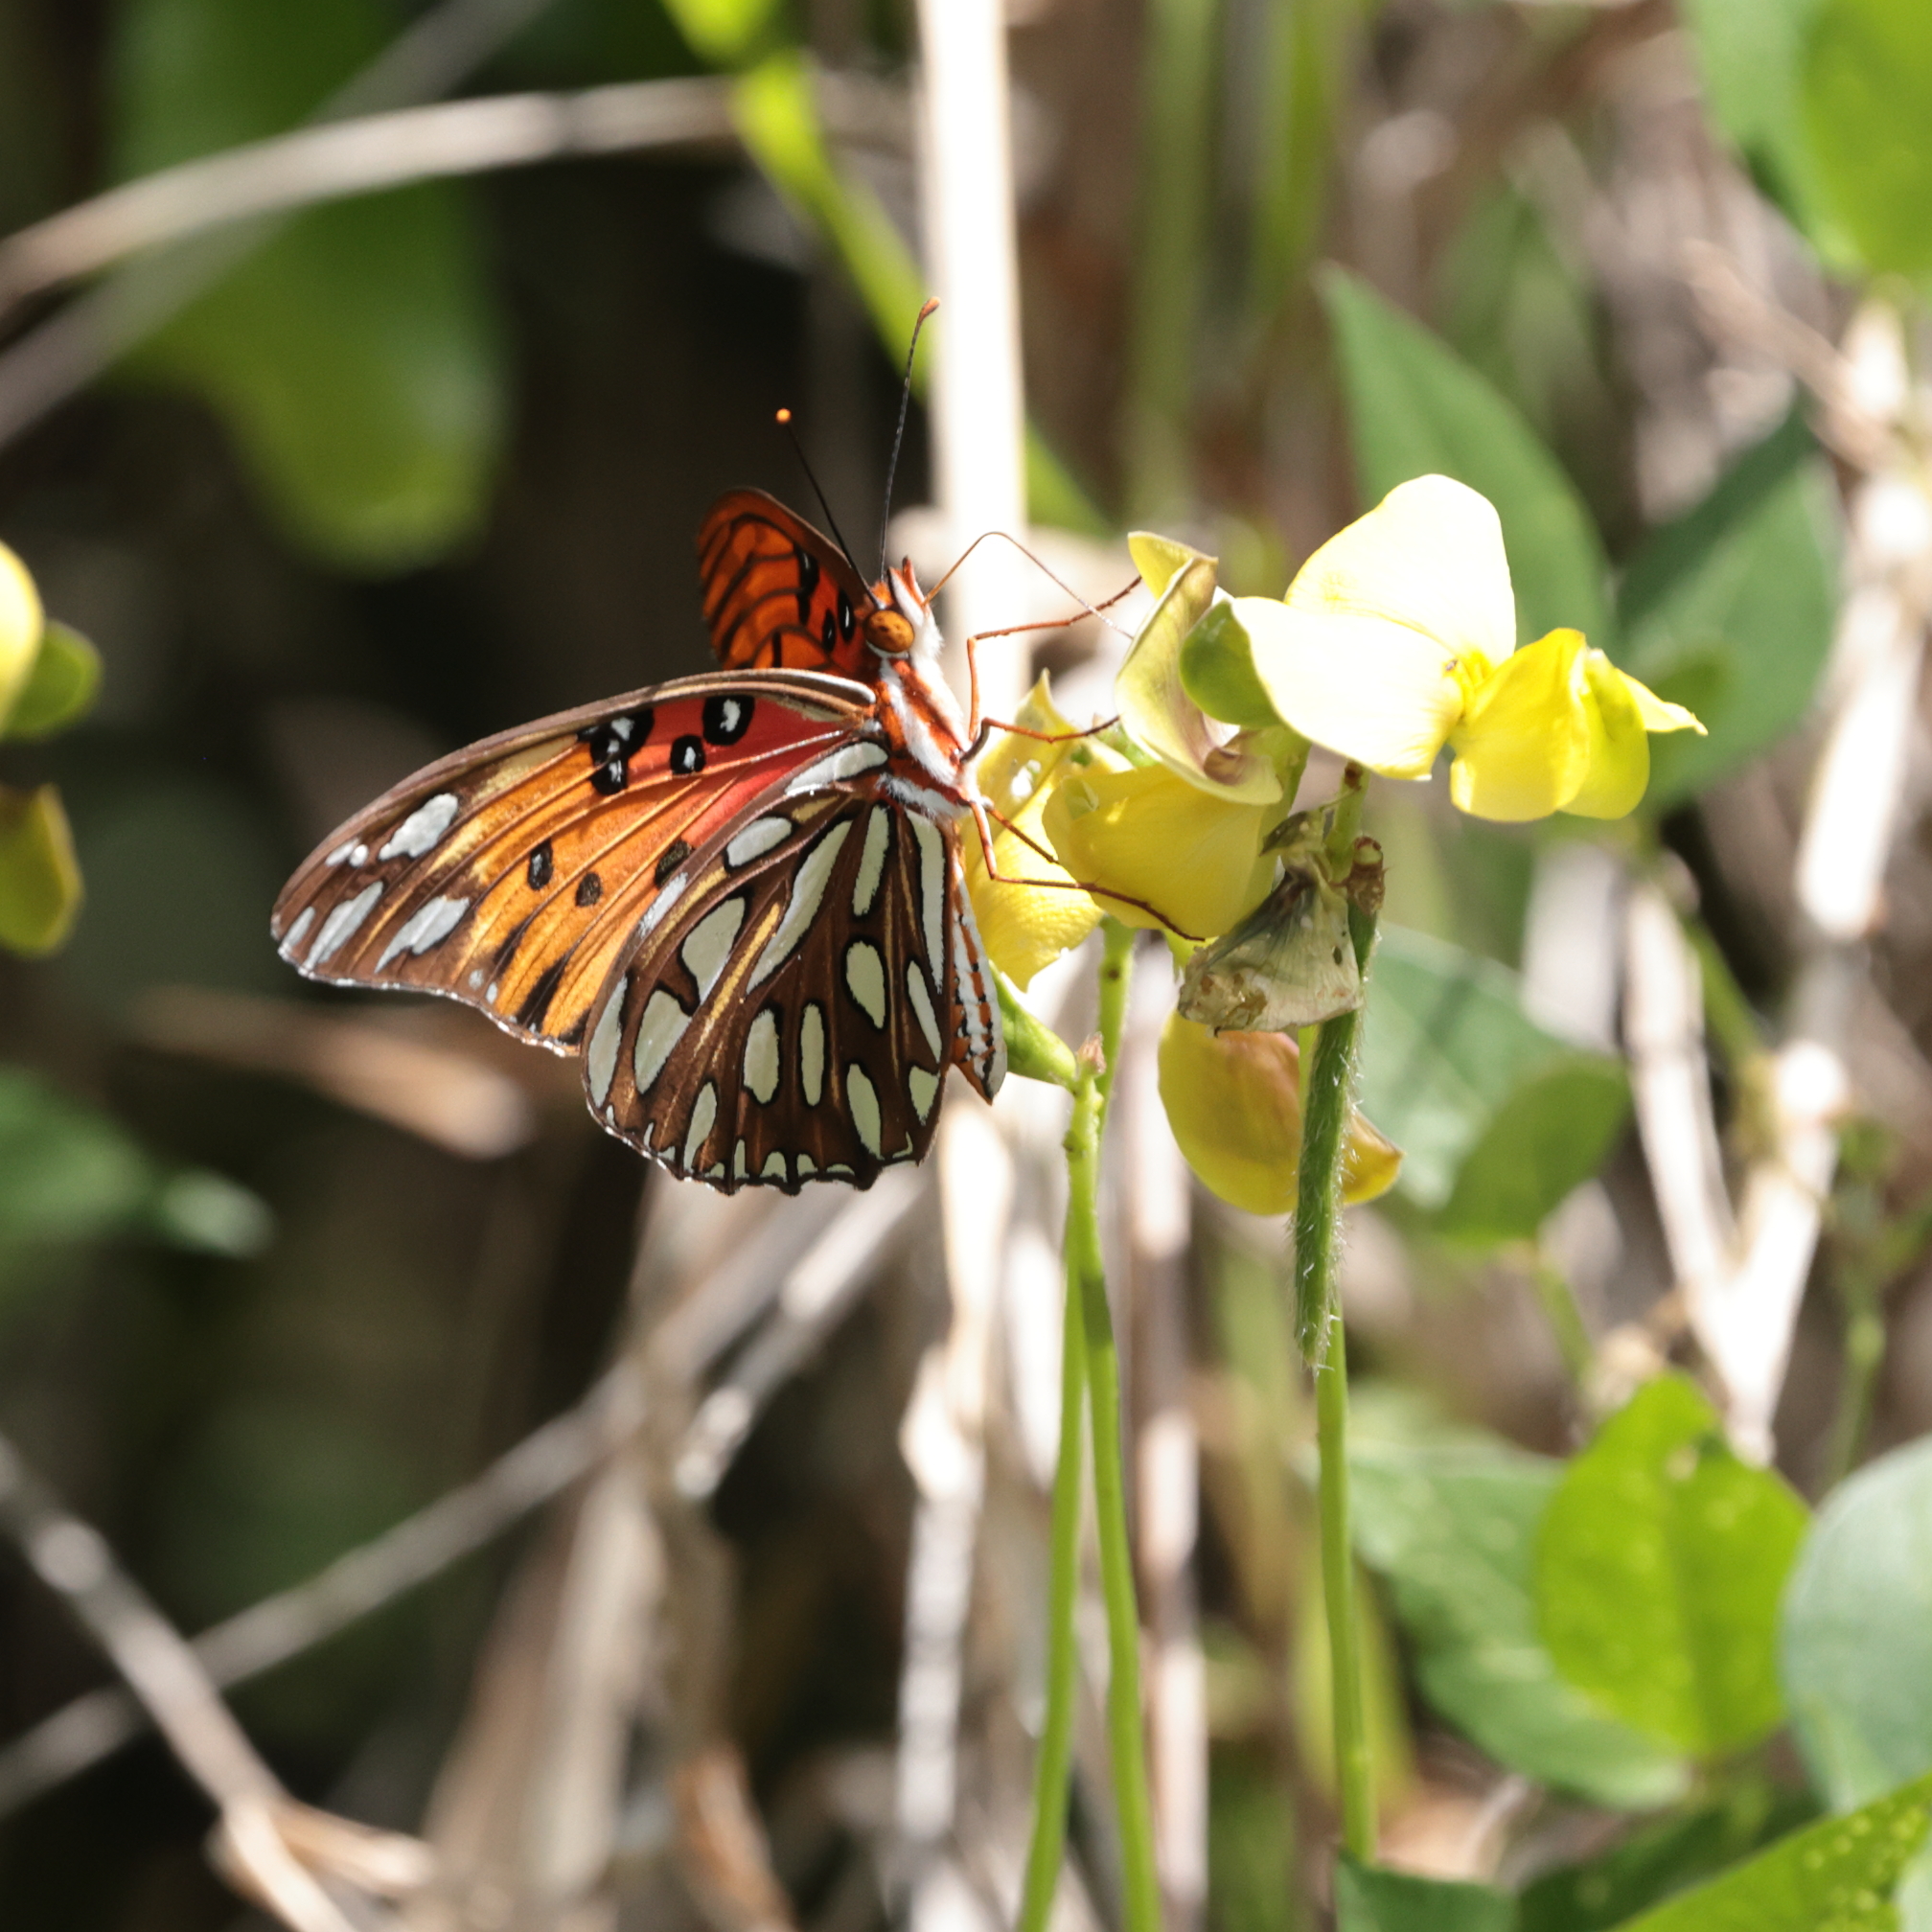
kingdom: Animalia
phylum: Arthropoda
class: Insecta
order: Lepidoptera
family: Nymphalidae
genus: Dione
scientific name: Dione vanillae
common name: Gulf fritillary
